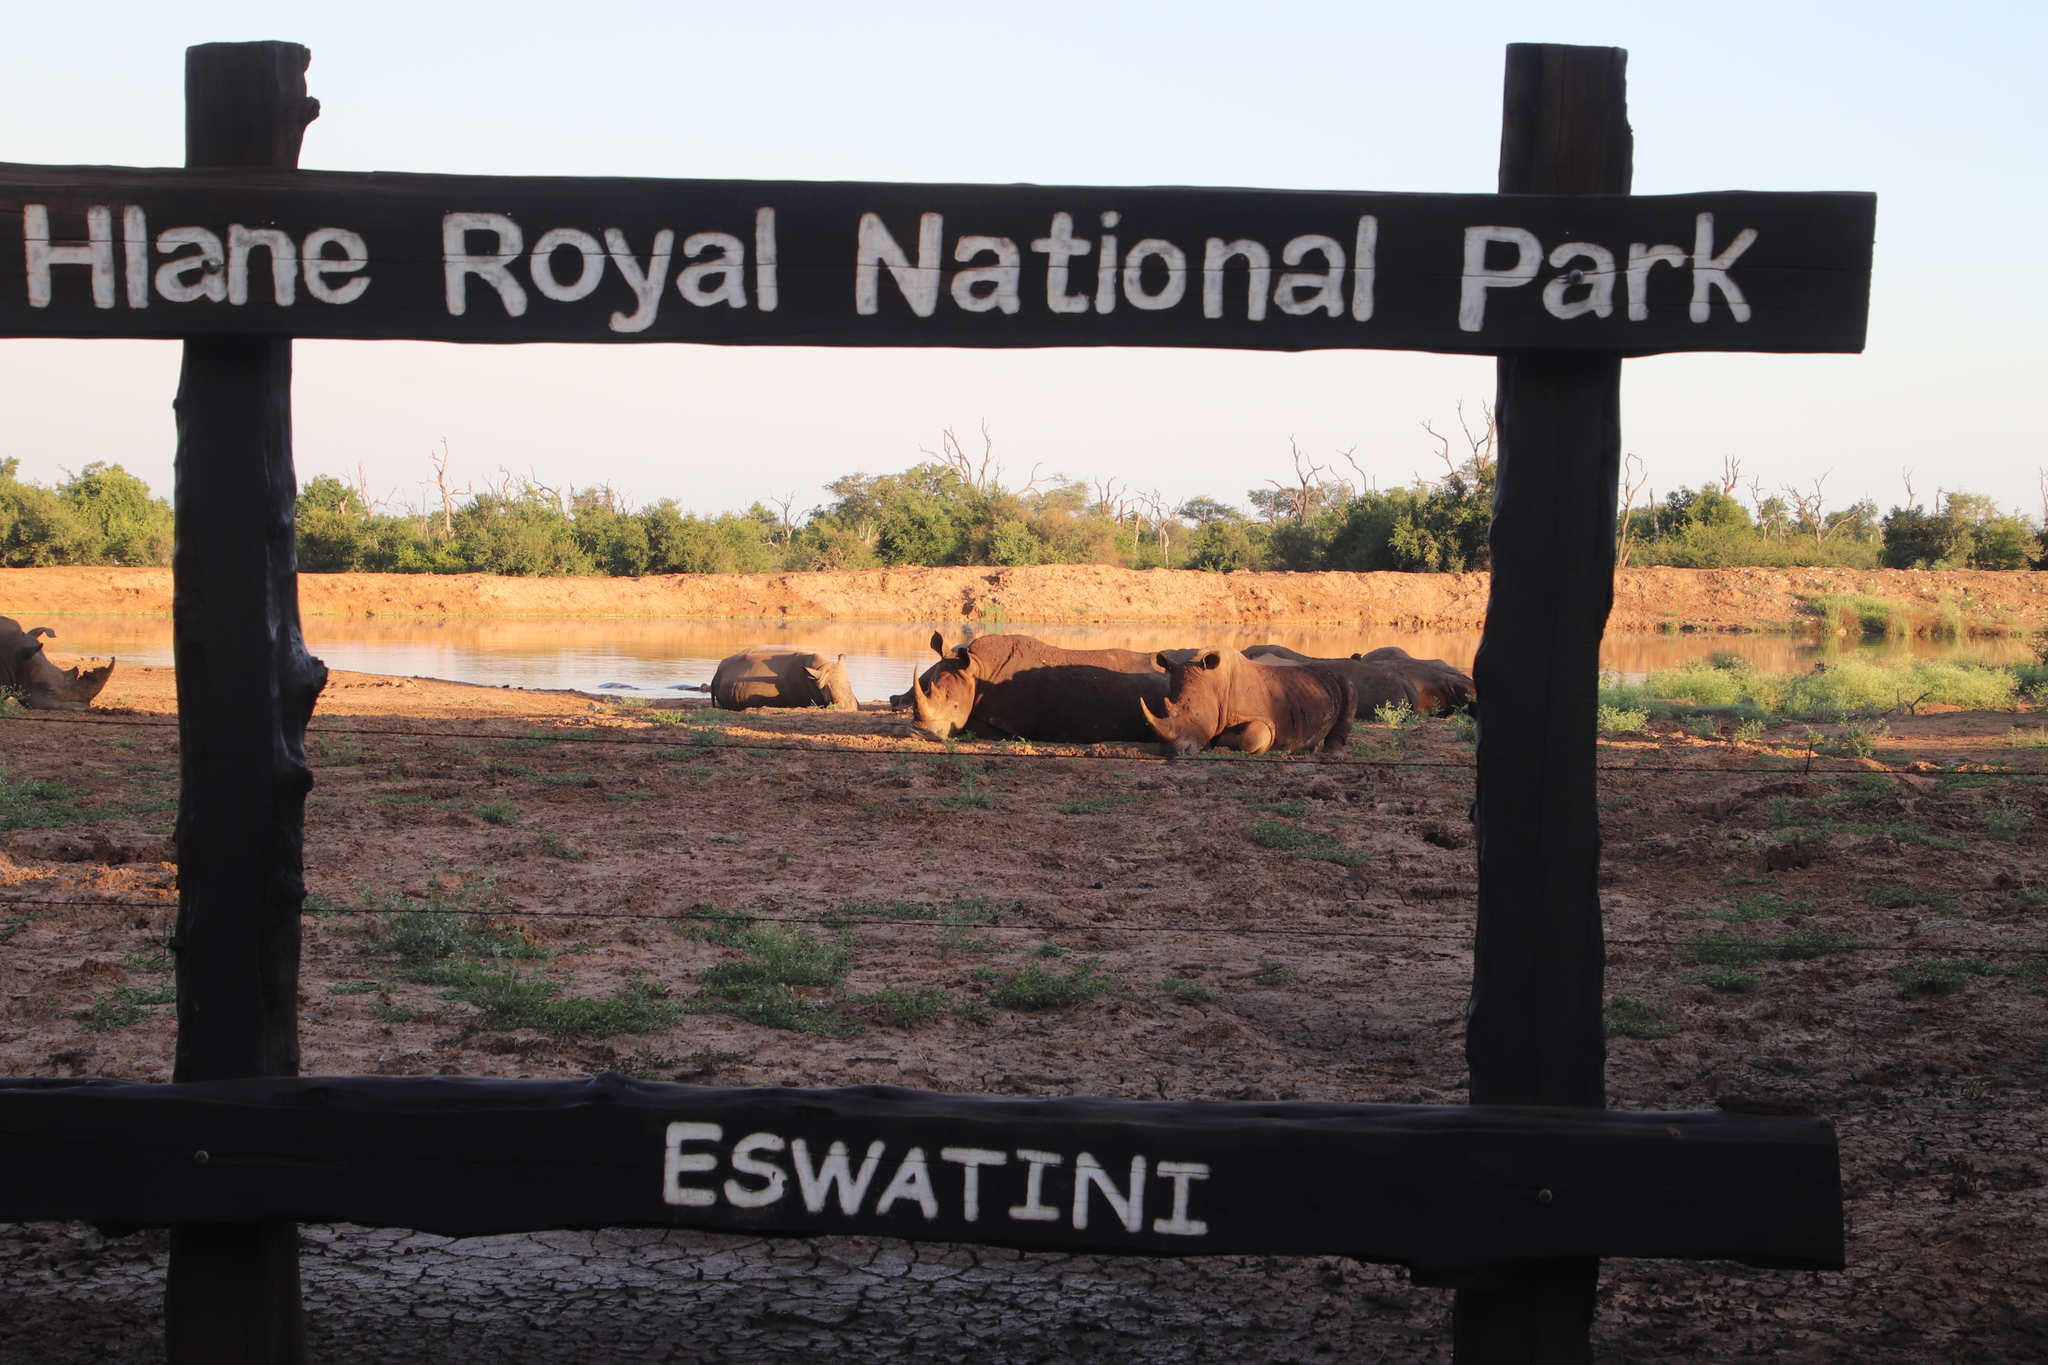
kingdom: Animalia
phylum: Chordata
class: Mammalia
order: Perissodactyla
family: Rhinocerotidae
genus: Ceratotherium
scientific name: Ceratotherium simum
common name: White rhinoceros
